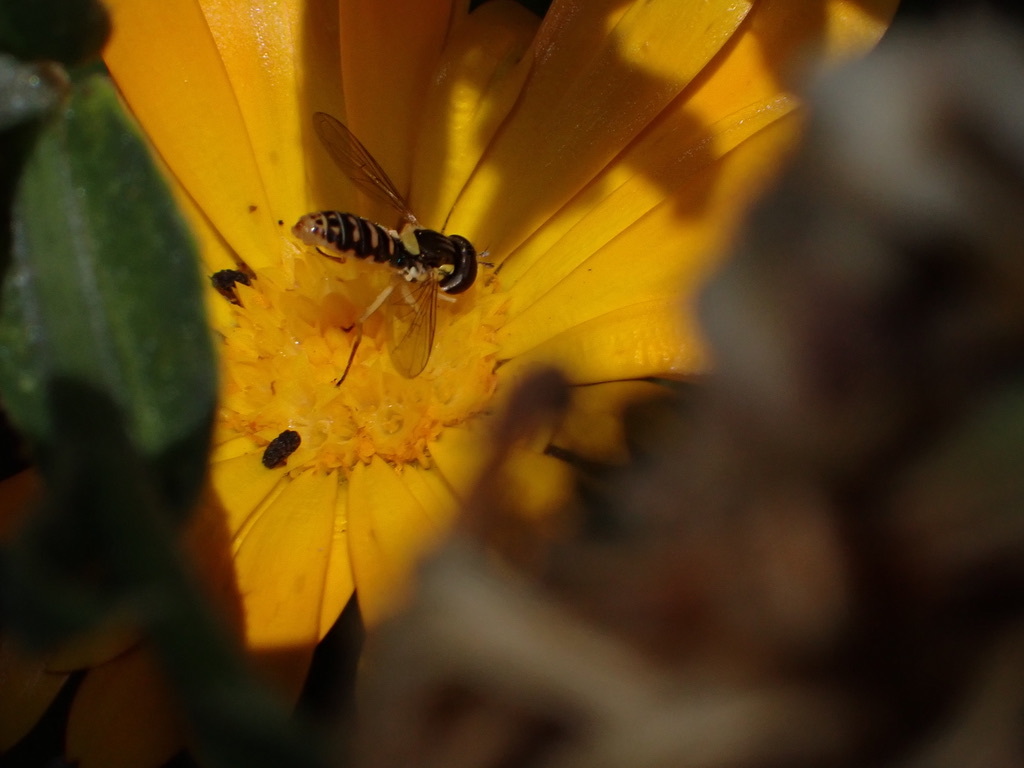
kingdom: Animalia
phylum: Arthropoda
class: Insecta
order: Diptera
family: Syrphidae
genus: Sphaerophoria
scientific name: Sphaerophoria sulphuripes
